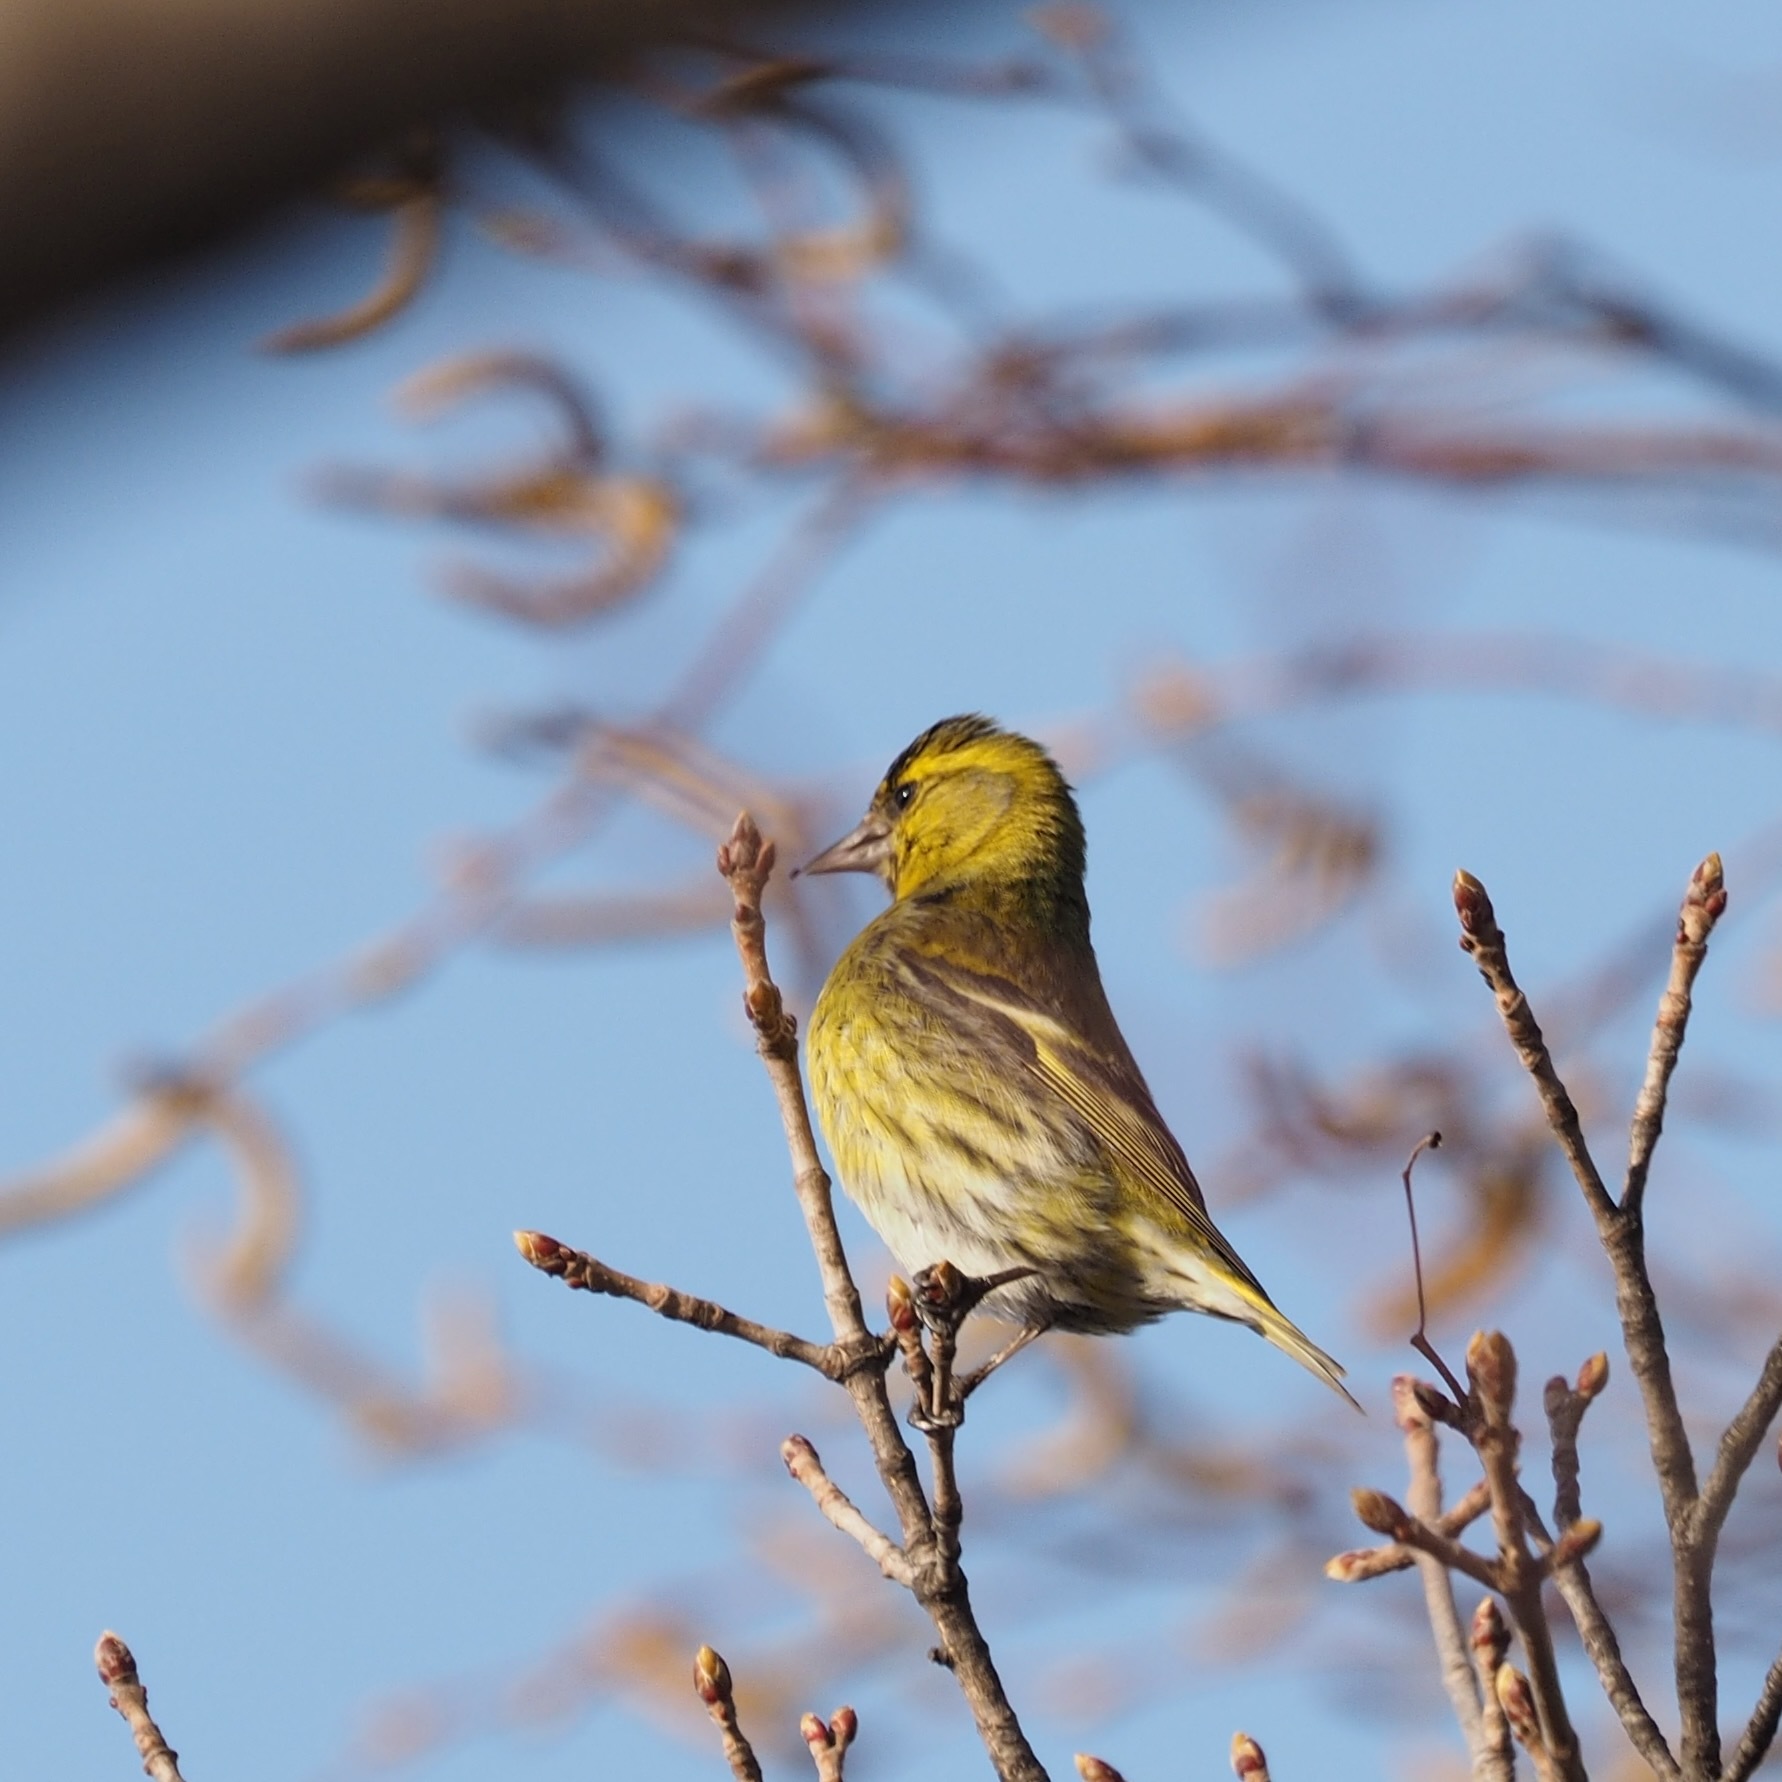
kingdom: Animalia
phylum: Chordata
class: Aves
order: Passeriformes
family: Fringillidae
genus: Spinus
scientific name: Spinus spinus
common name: Eurasian siskin
